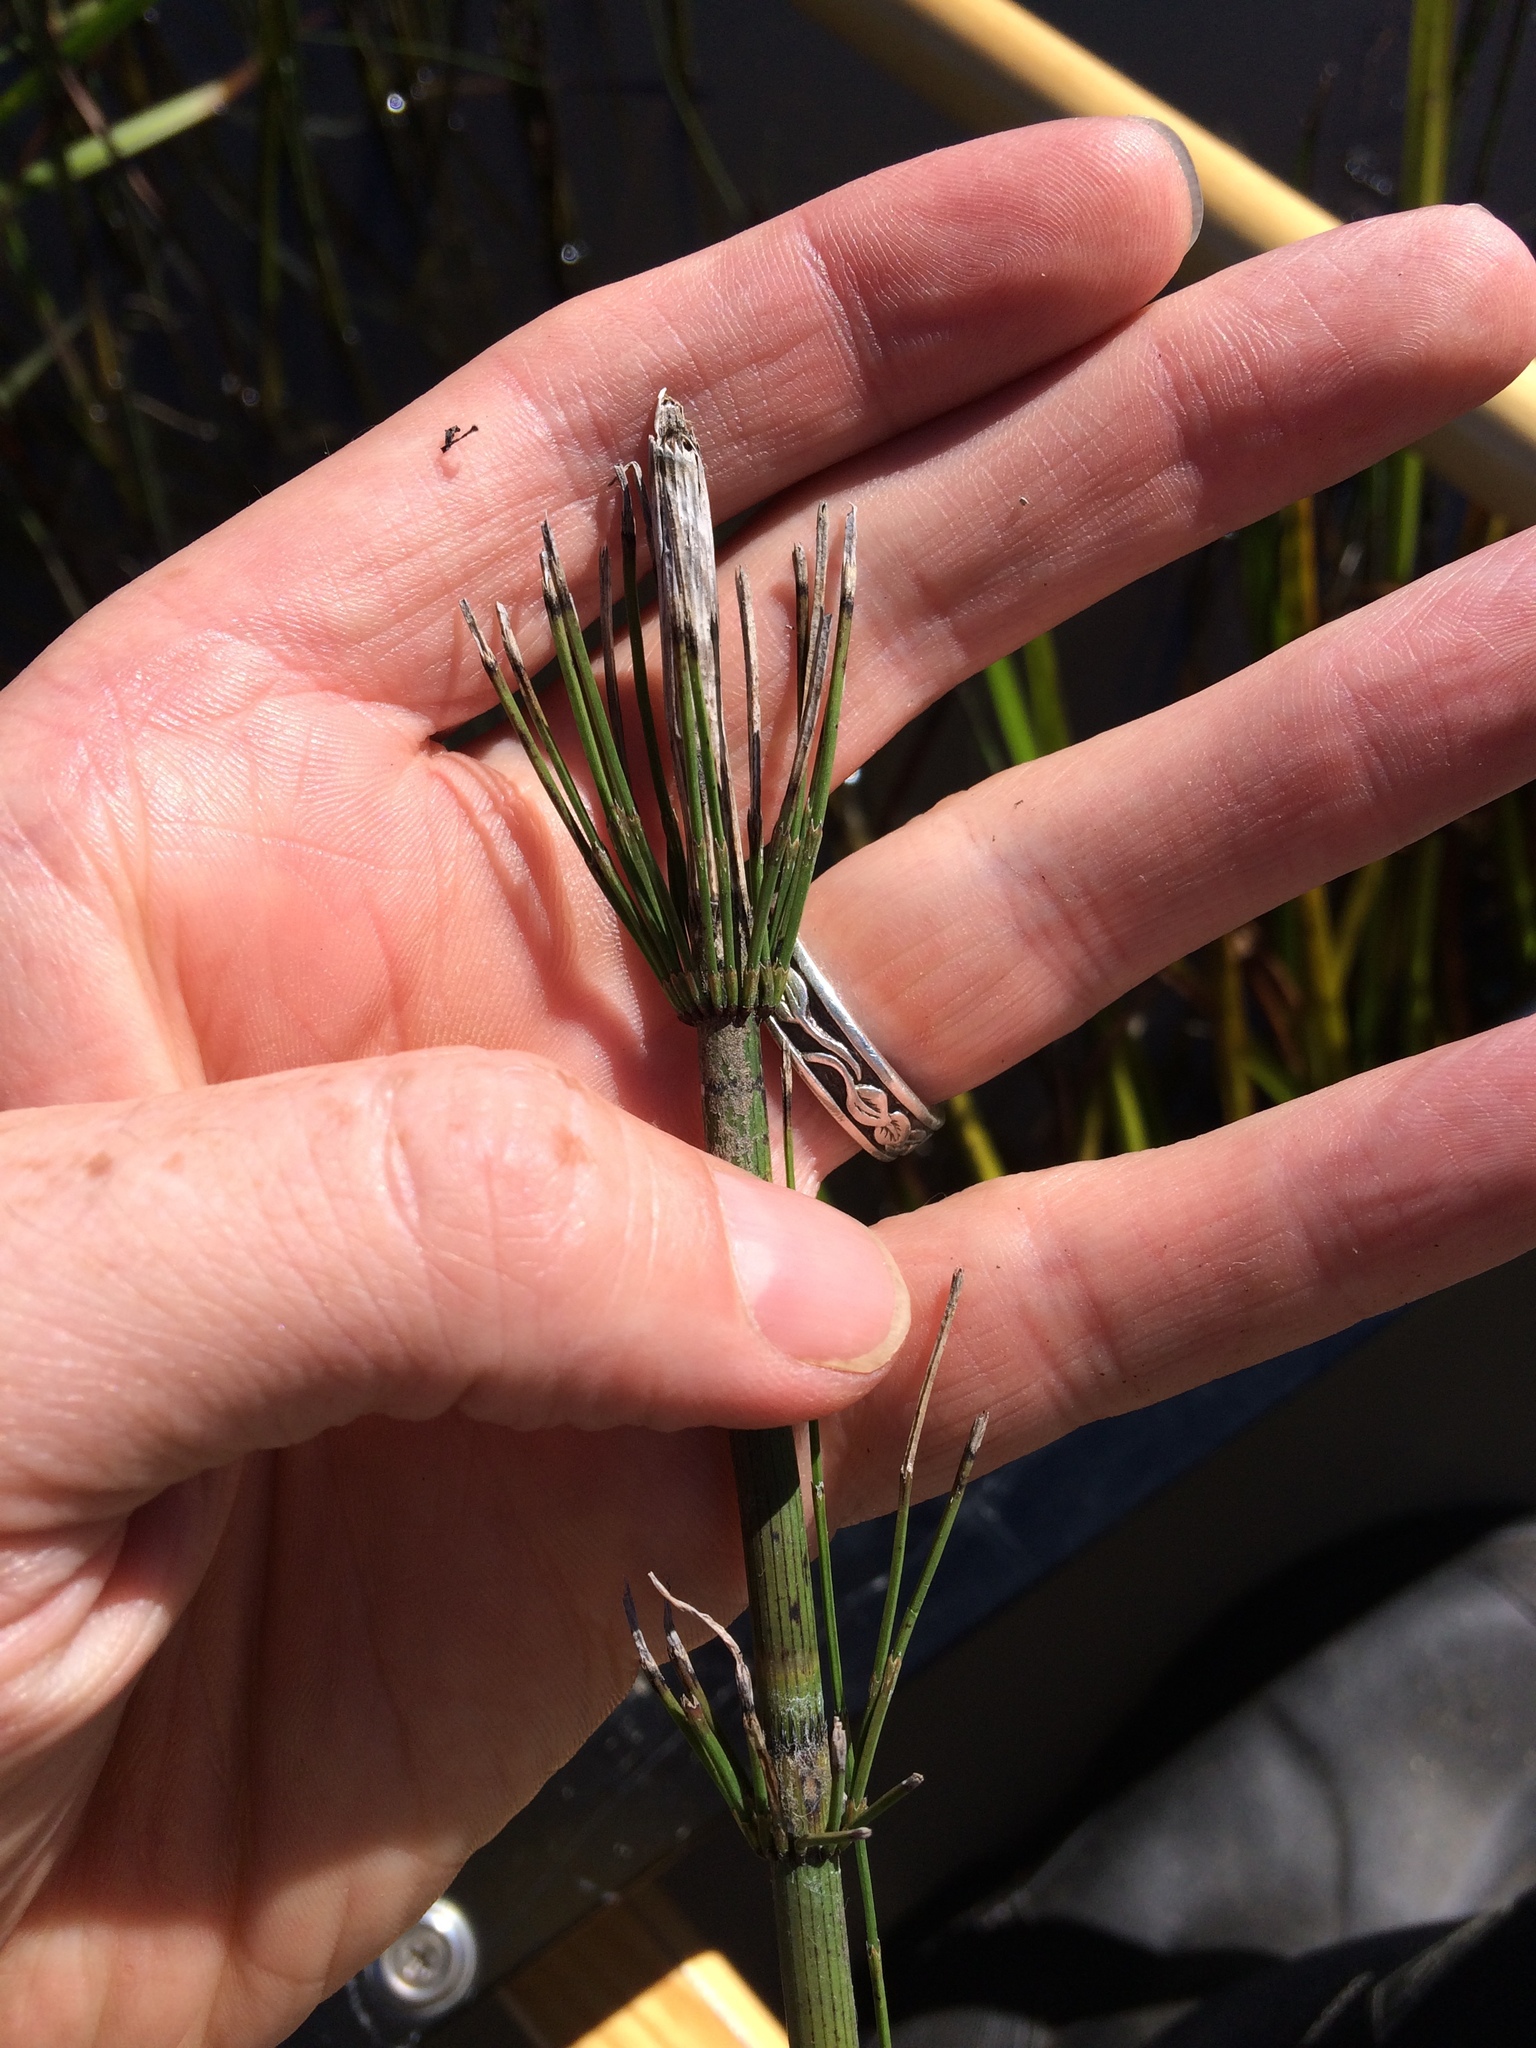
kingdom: Plantae
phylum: Tracheophyta
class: Polypodiopsida
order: Equisetales
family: Equisetaceae
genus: Equisetum
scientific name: Equisetum fluviatile
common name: Water horsetail
